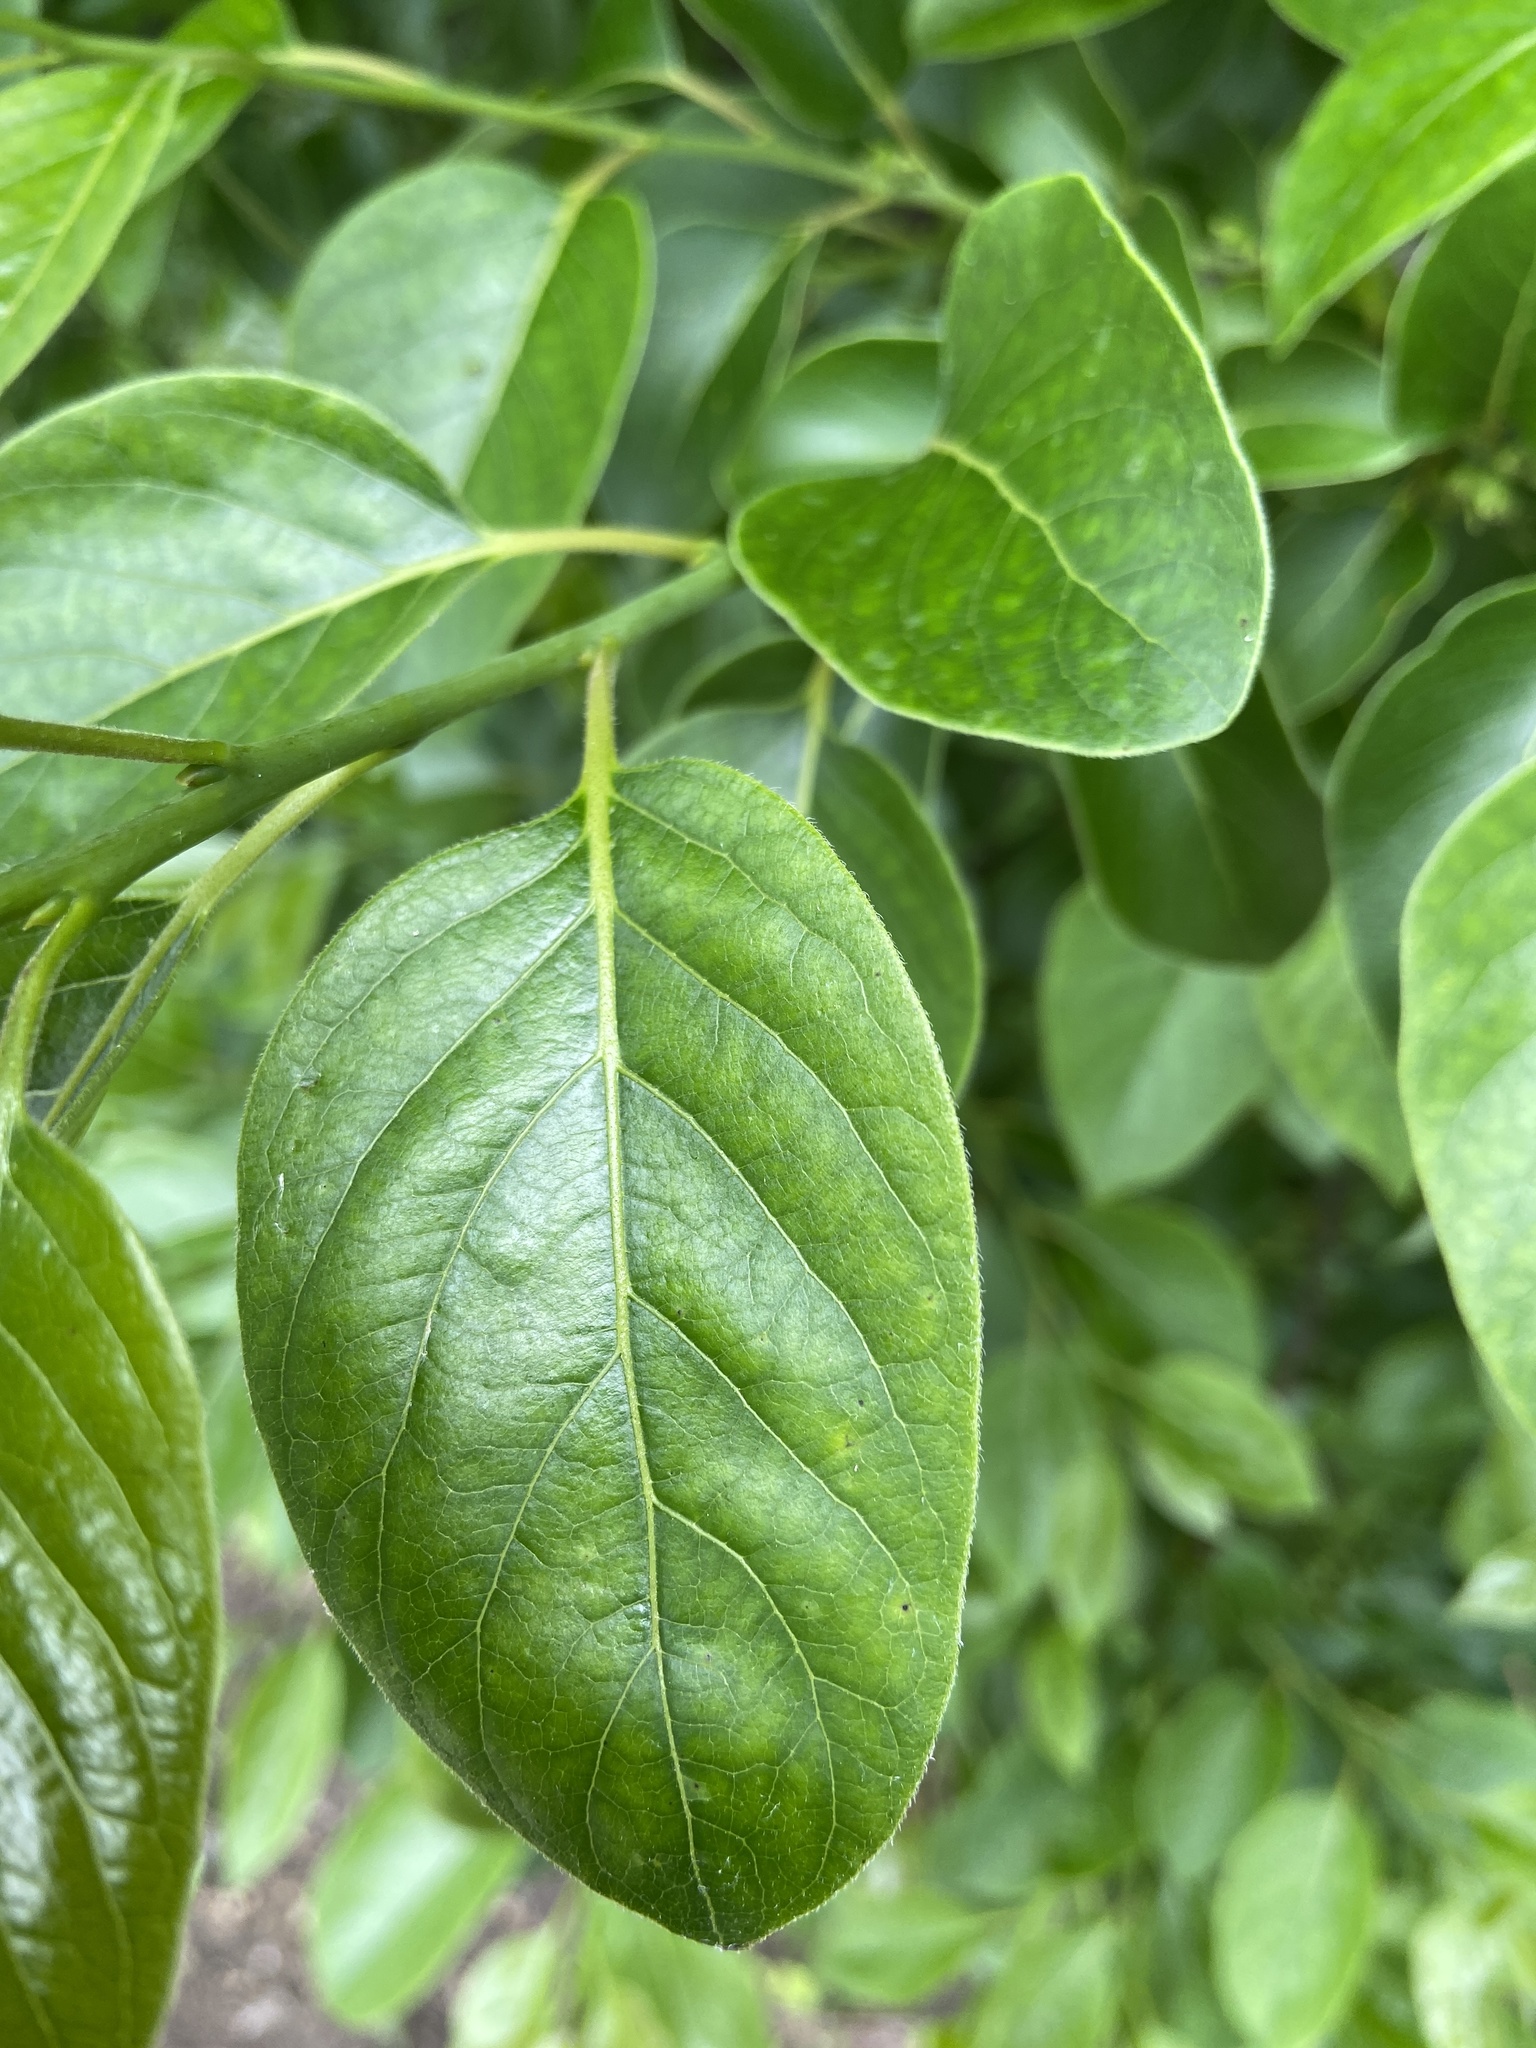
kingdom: Plantae
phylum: Tracheophyta
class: Magnoliopsida
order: Ericales
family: Ebenaceae
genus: Diospyros
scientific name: Diospyros virginiana
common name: Persimmon
